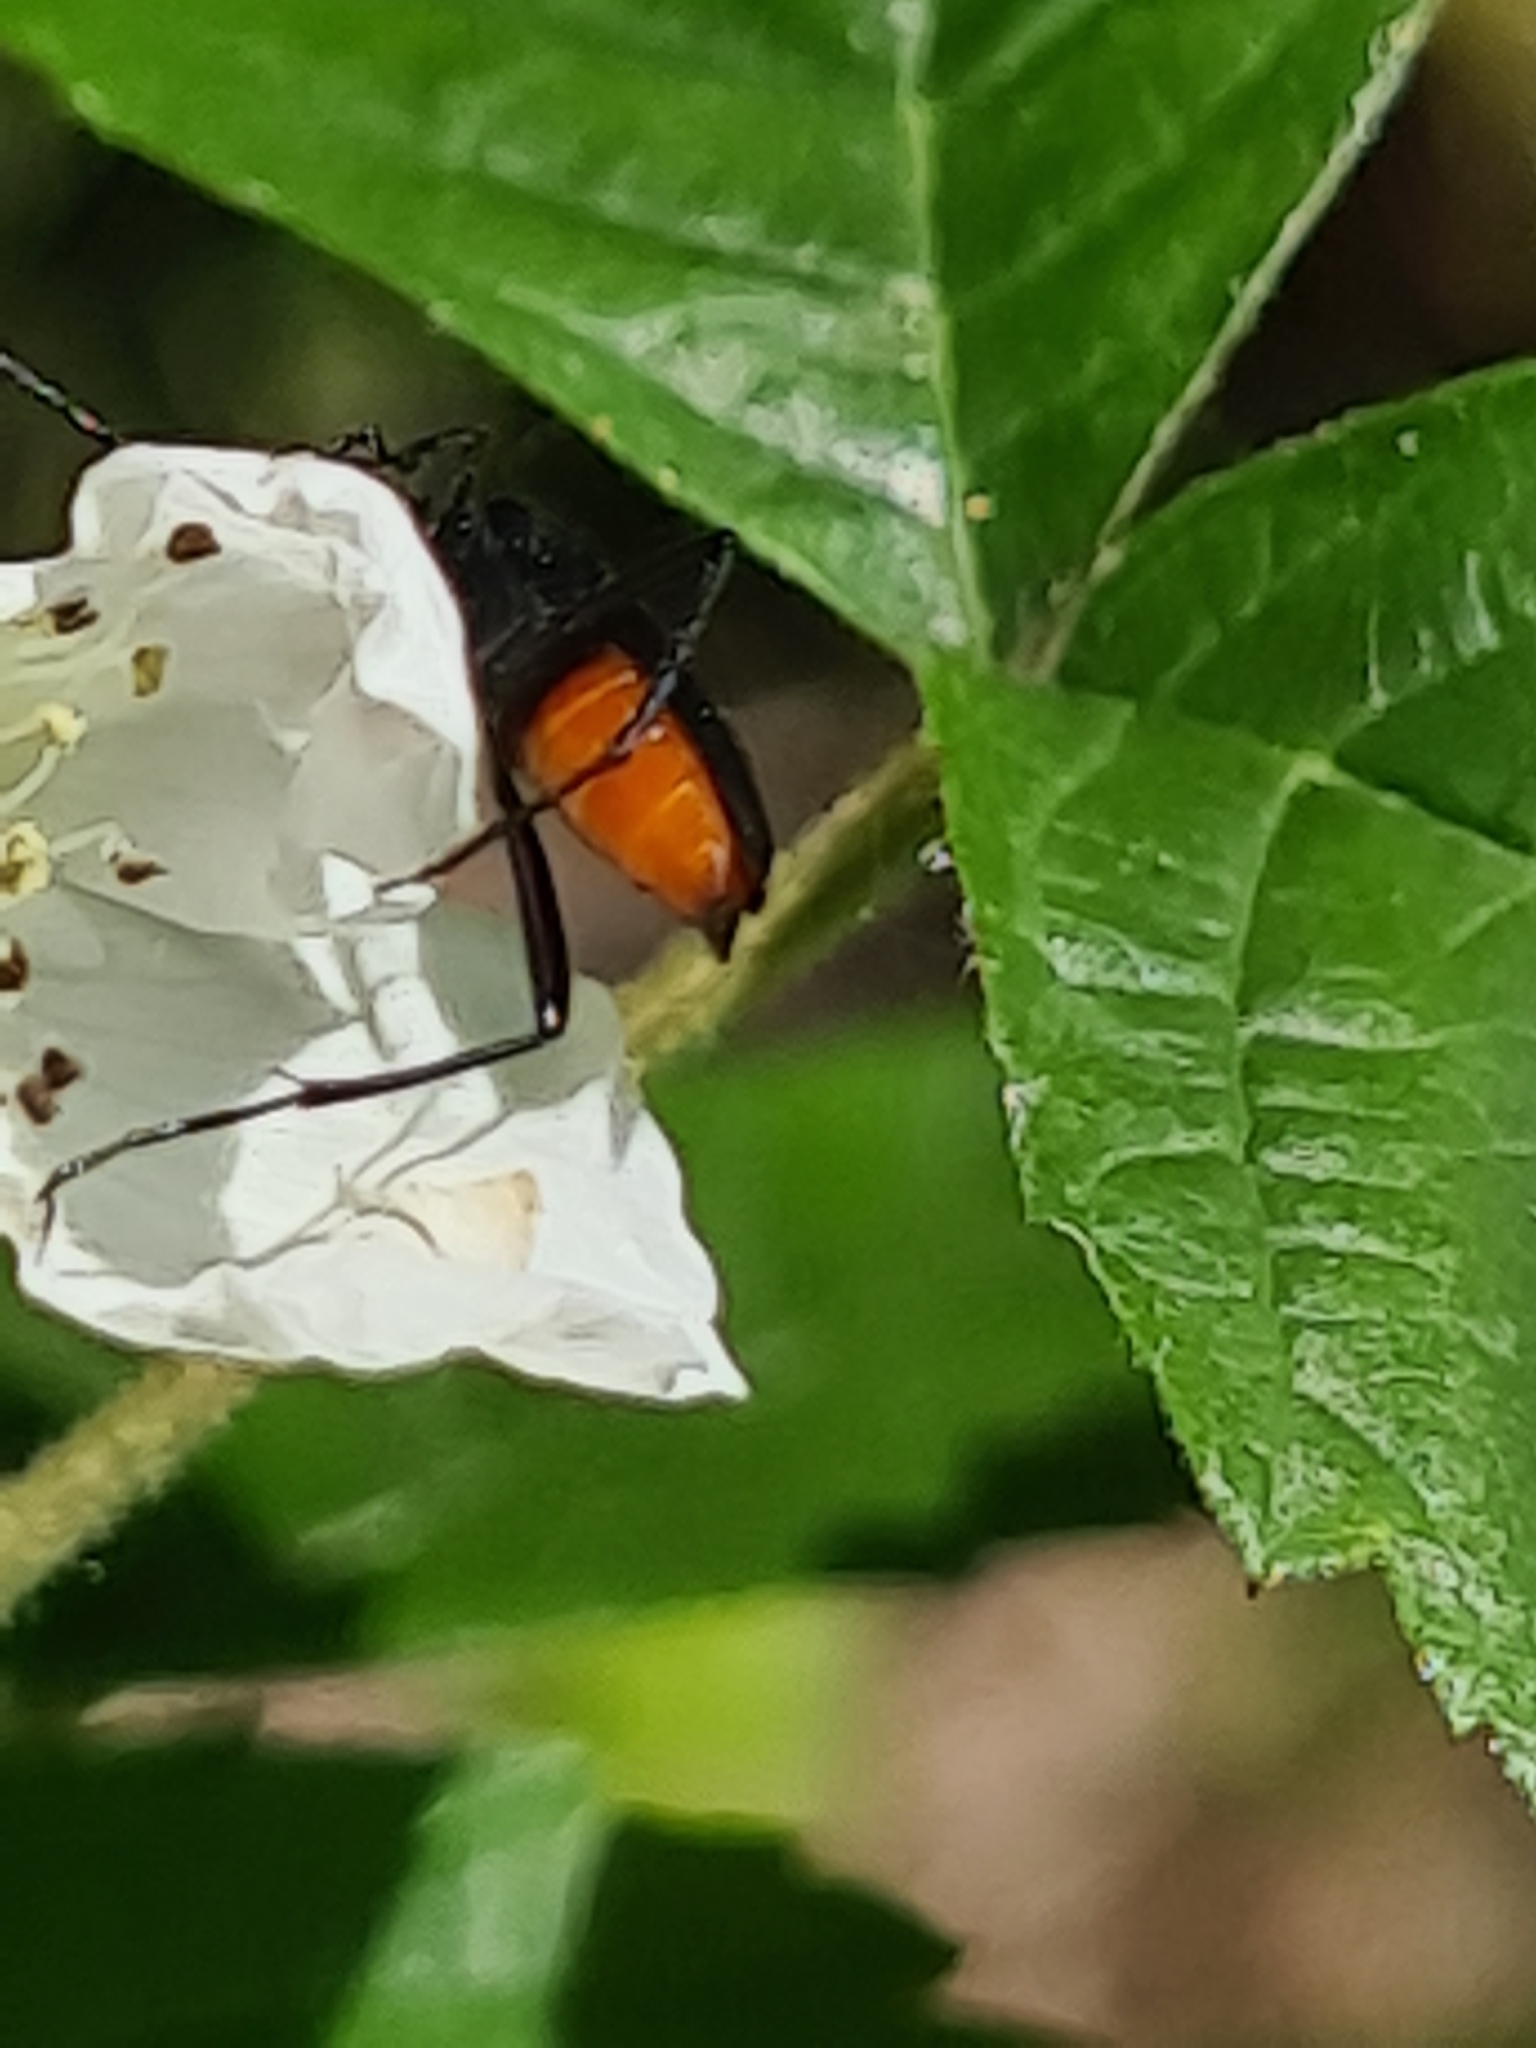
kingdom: Animalia
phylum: Arthropoda
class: Insecta
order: Coleoptera
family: Cerambycidae
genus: Stenurella
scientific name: Stenurella nigra
